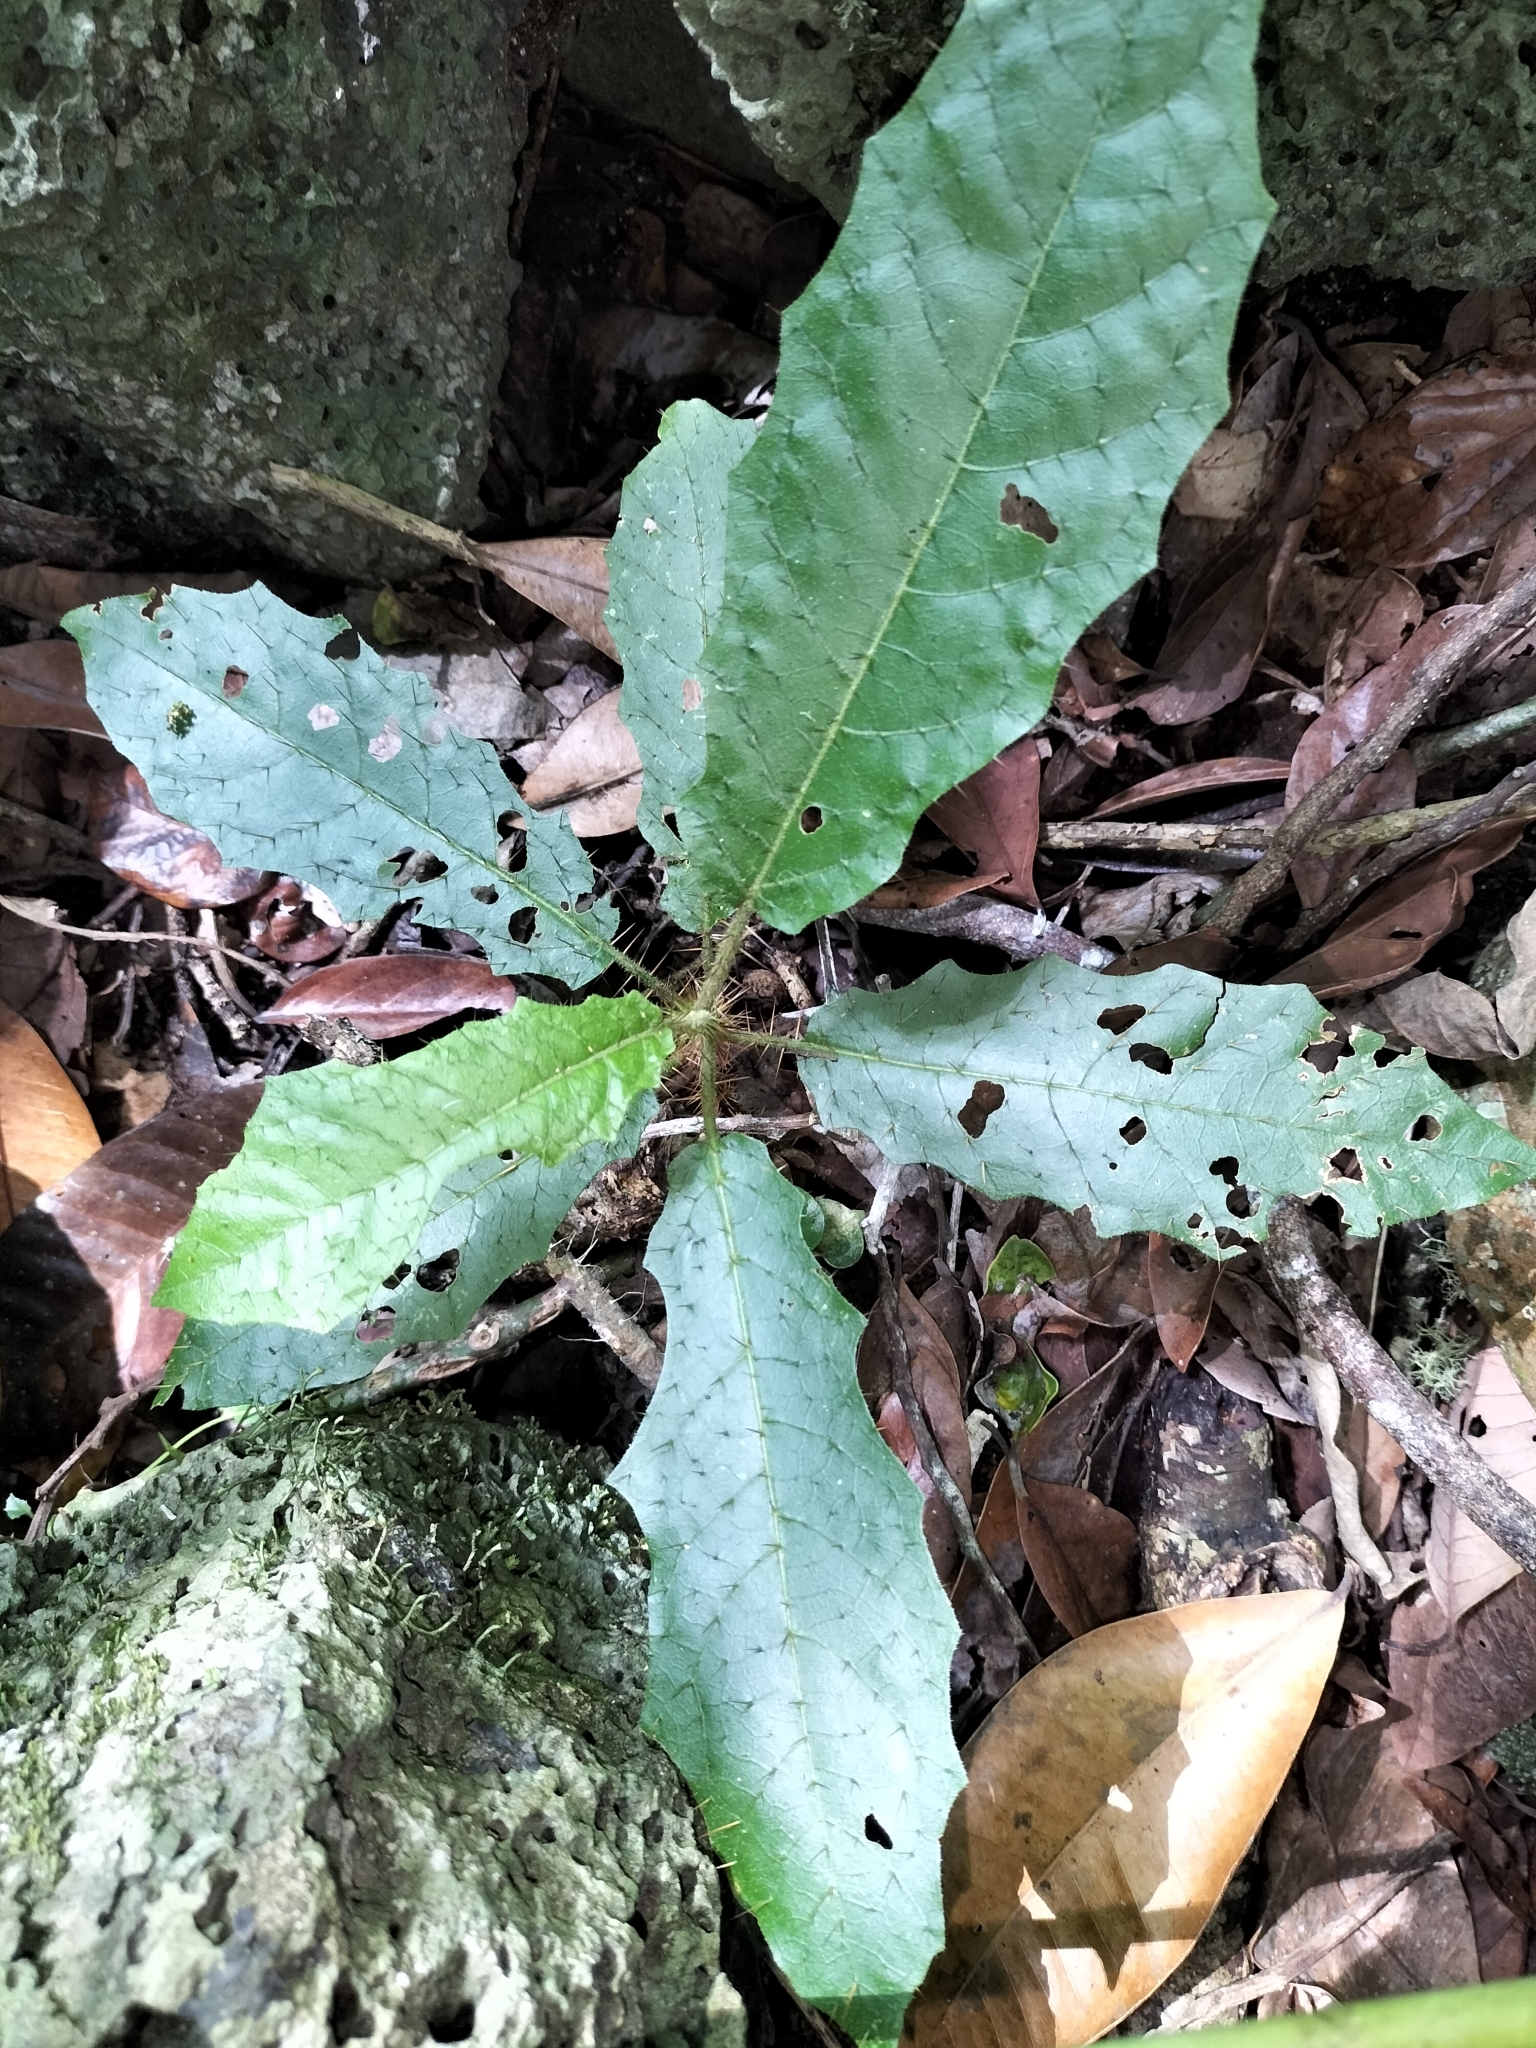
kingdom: Plantae
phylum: Tracheophyta
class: Magnoliopsida
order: Solanales
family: Solanaceae
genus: Solanum
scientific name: Solanum macoorai
